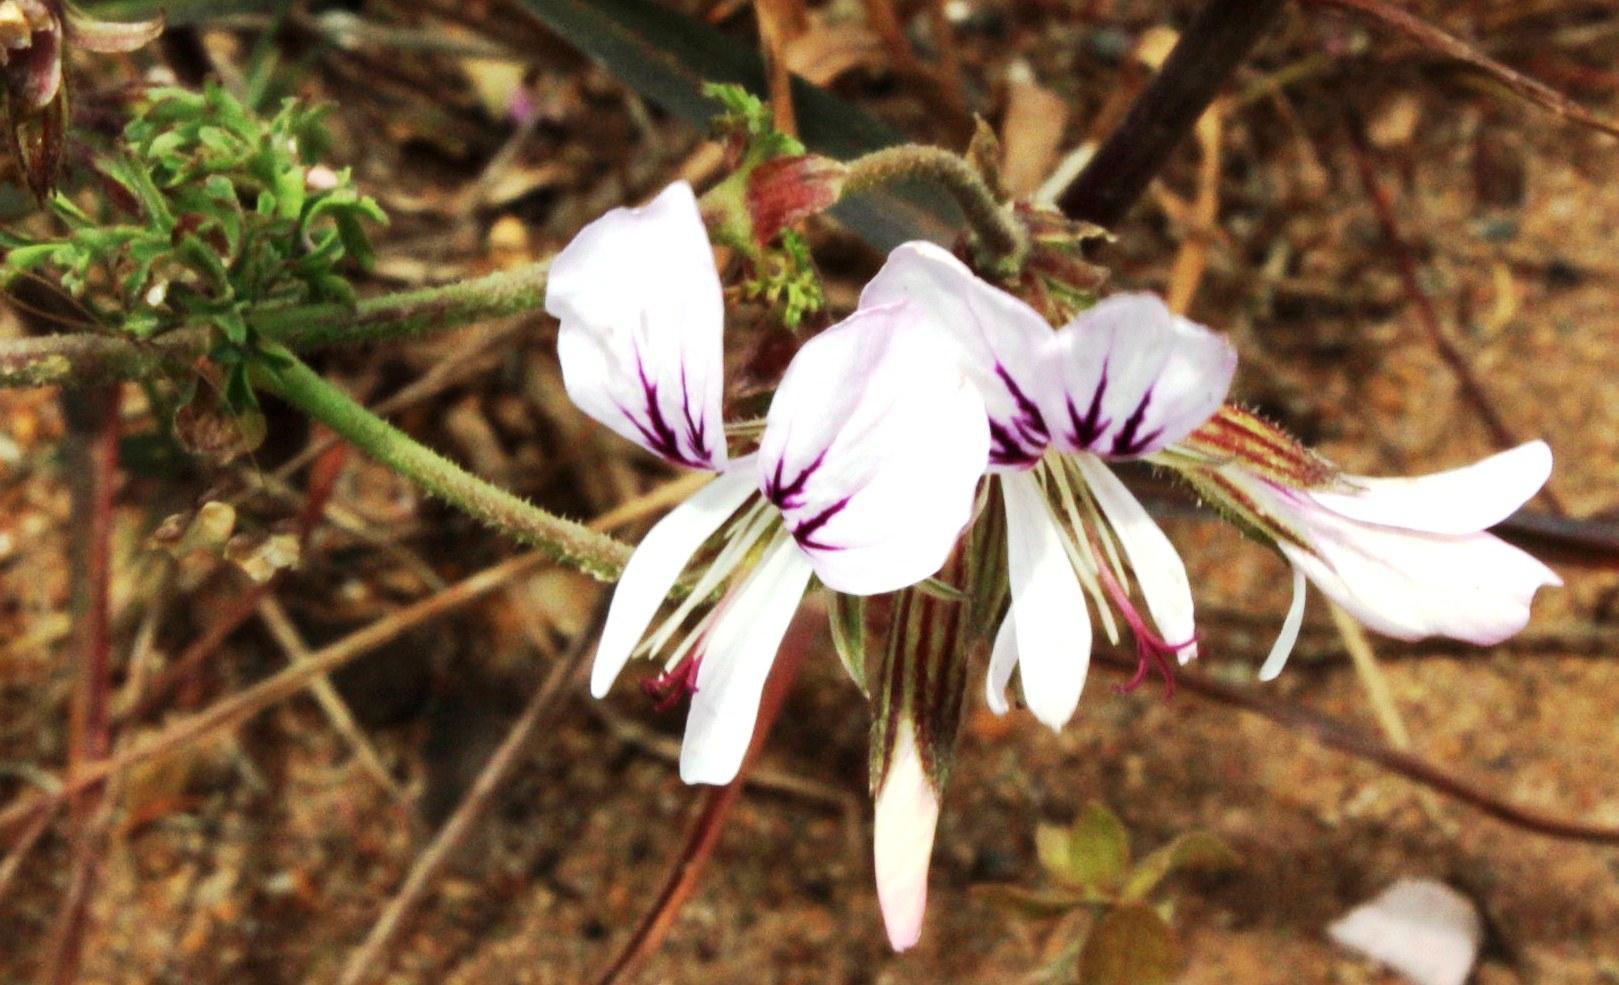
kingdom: Plantae
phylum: Tracheophyta
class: Magnoliopsida
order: Geraniales
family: Geraniaceae
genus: Pelargonium
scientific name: Pelargonium myrrhifolium
